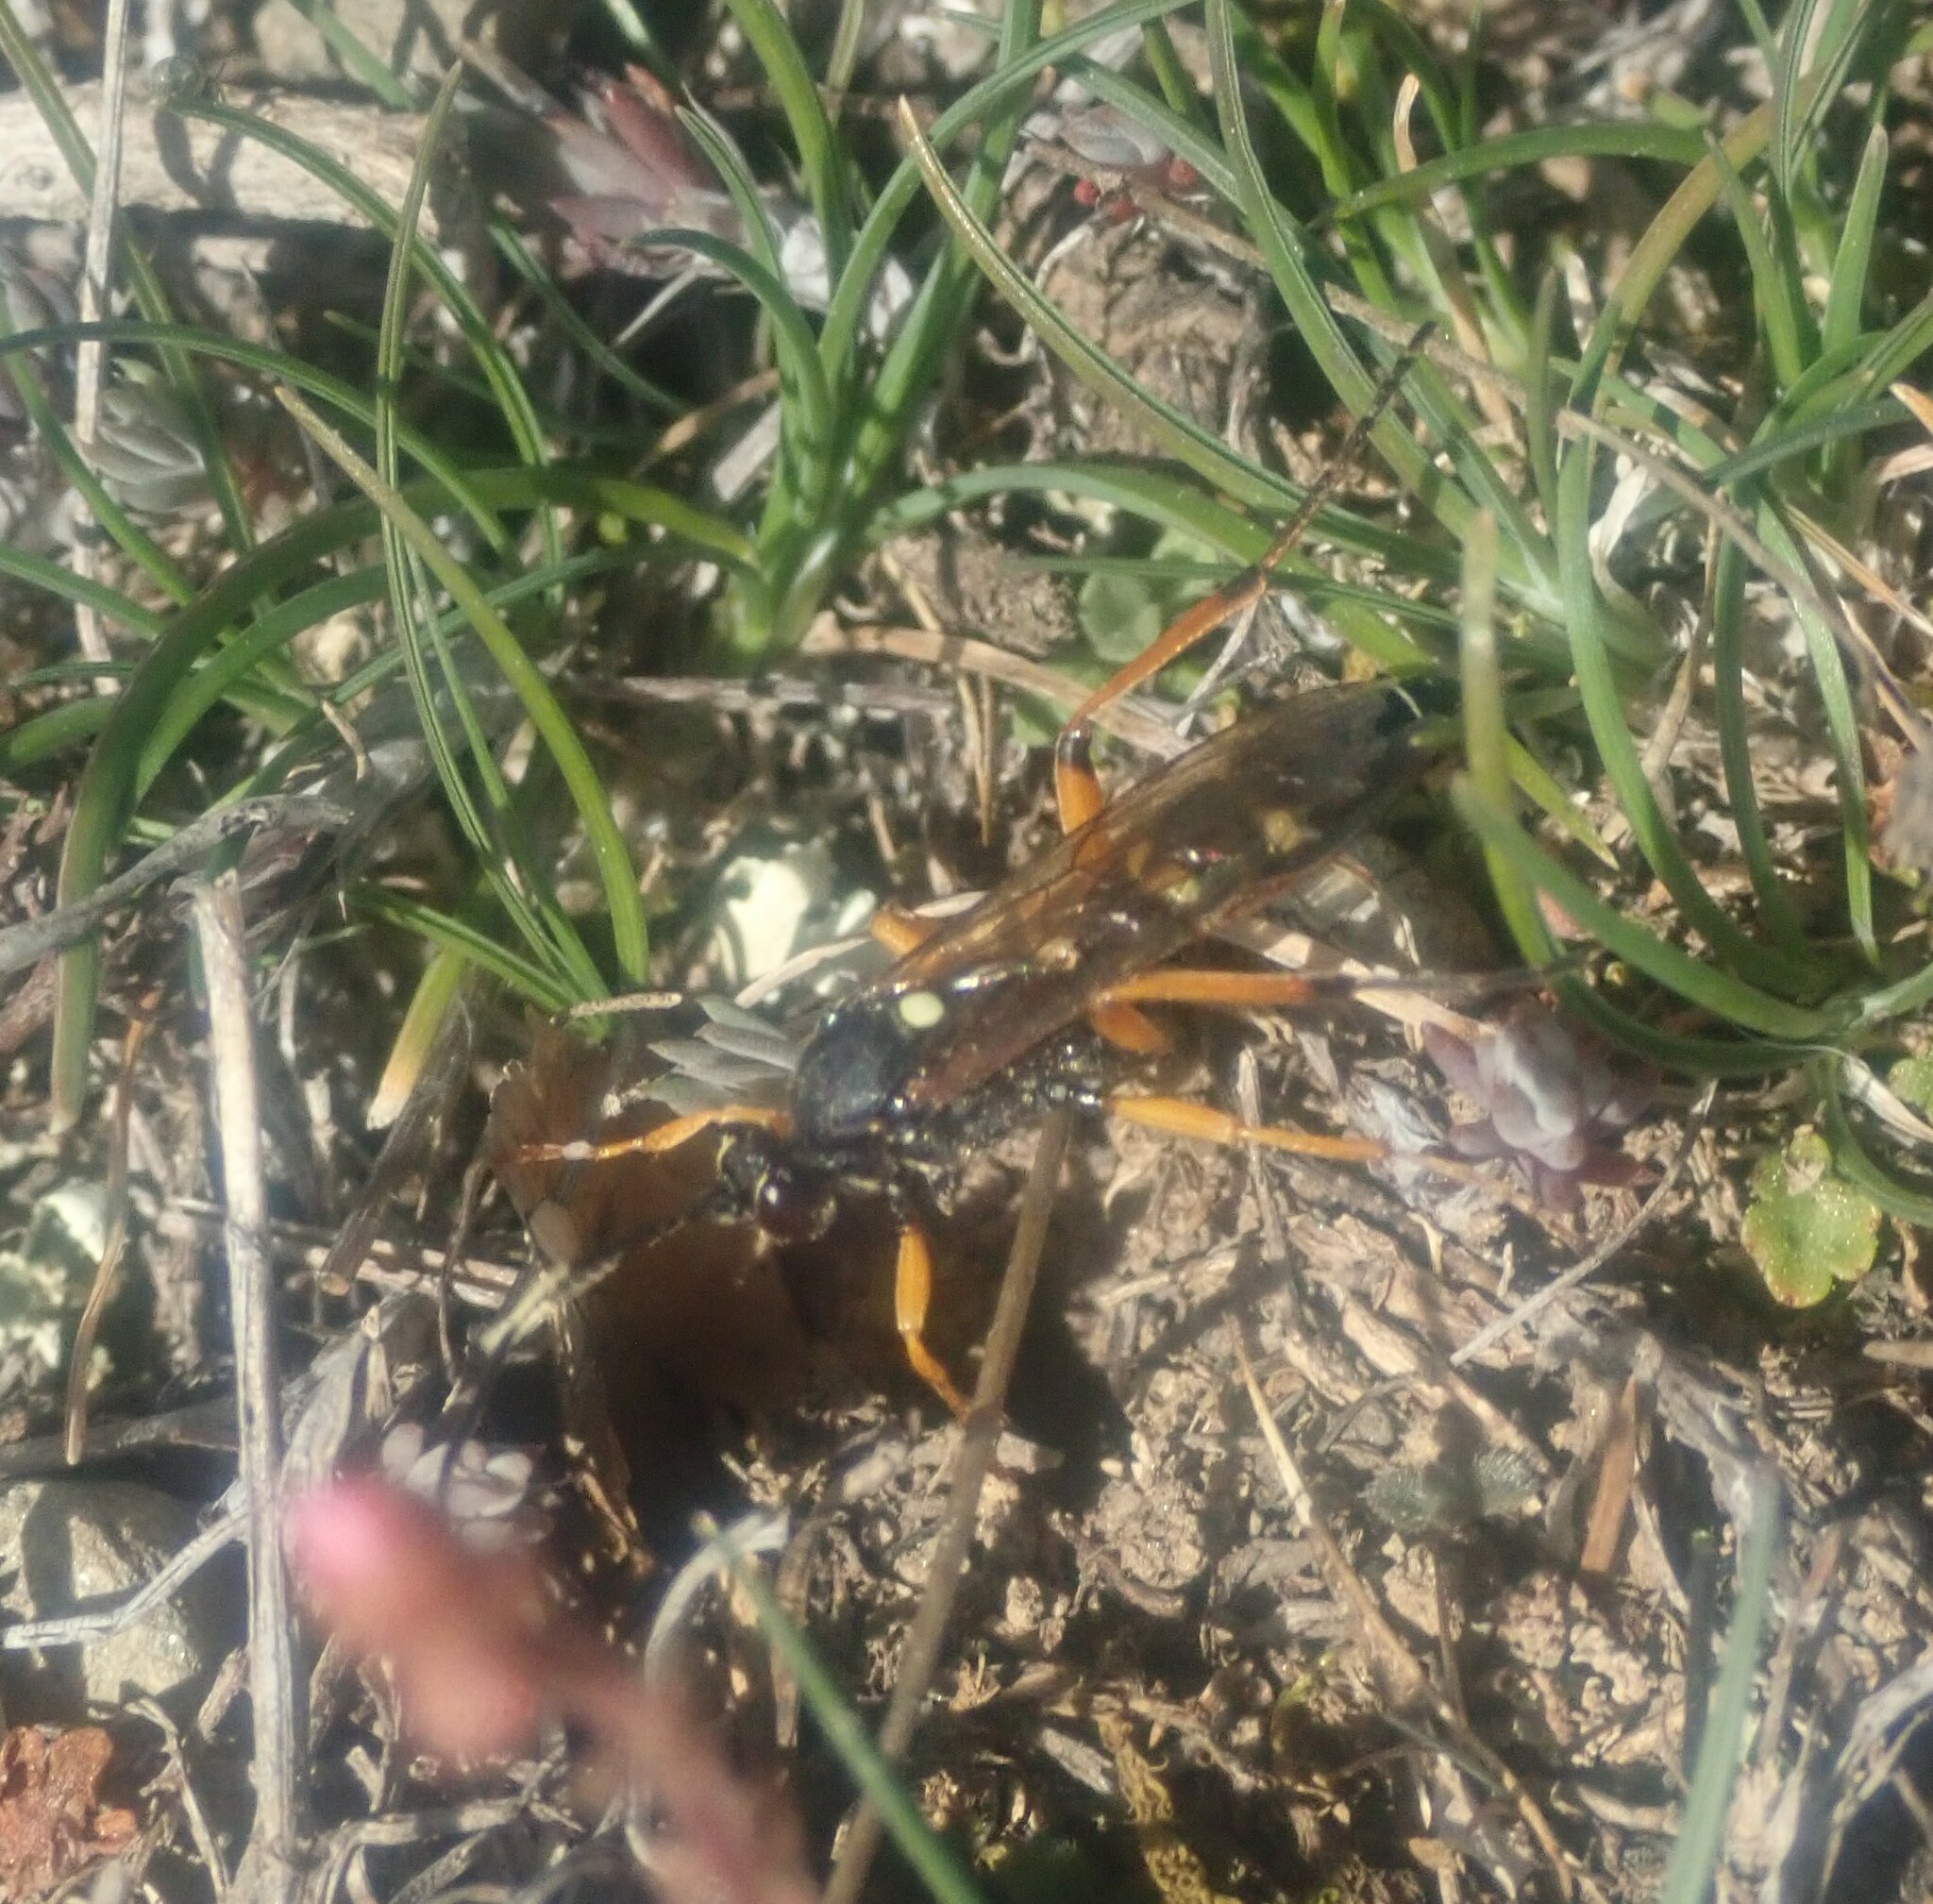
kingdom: Animalia
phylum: Arthropoda
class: Insecta
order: Hymenoptera
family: Ichneumonidae
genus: Diphyus
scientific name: Diphyus quadripunctorius
